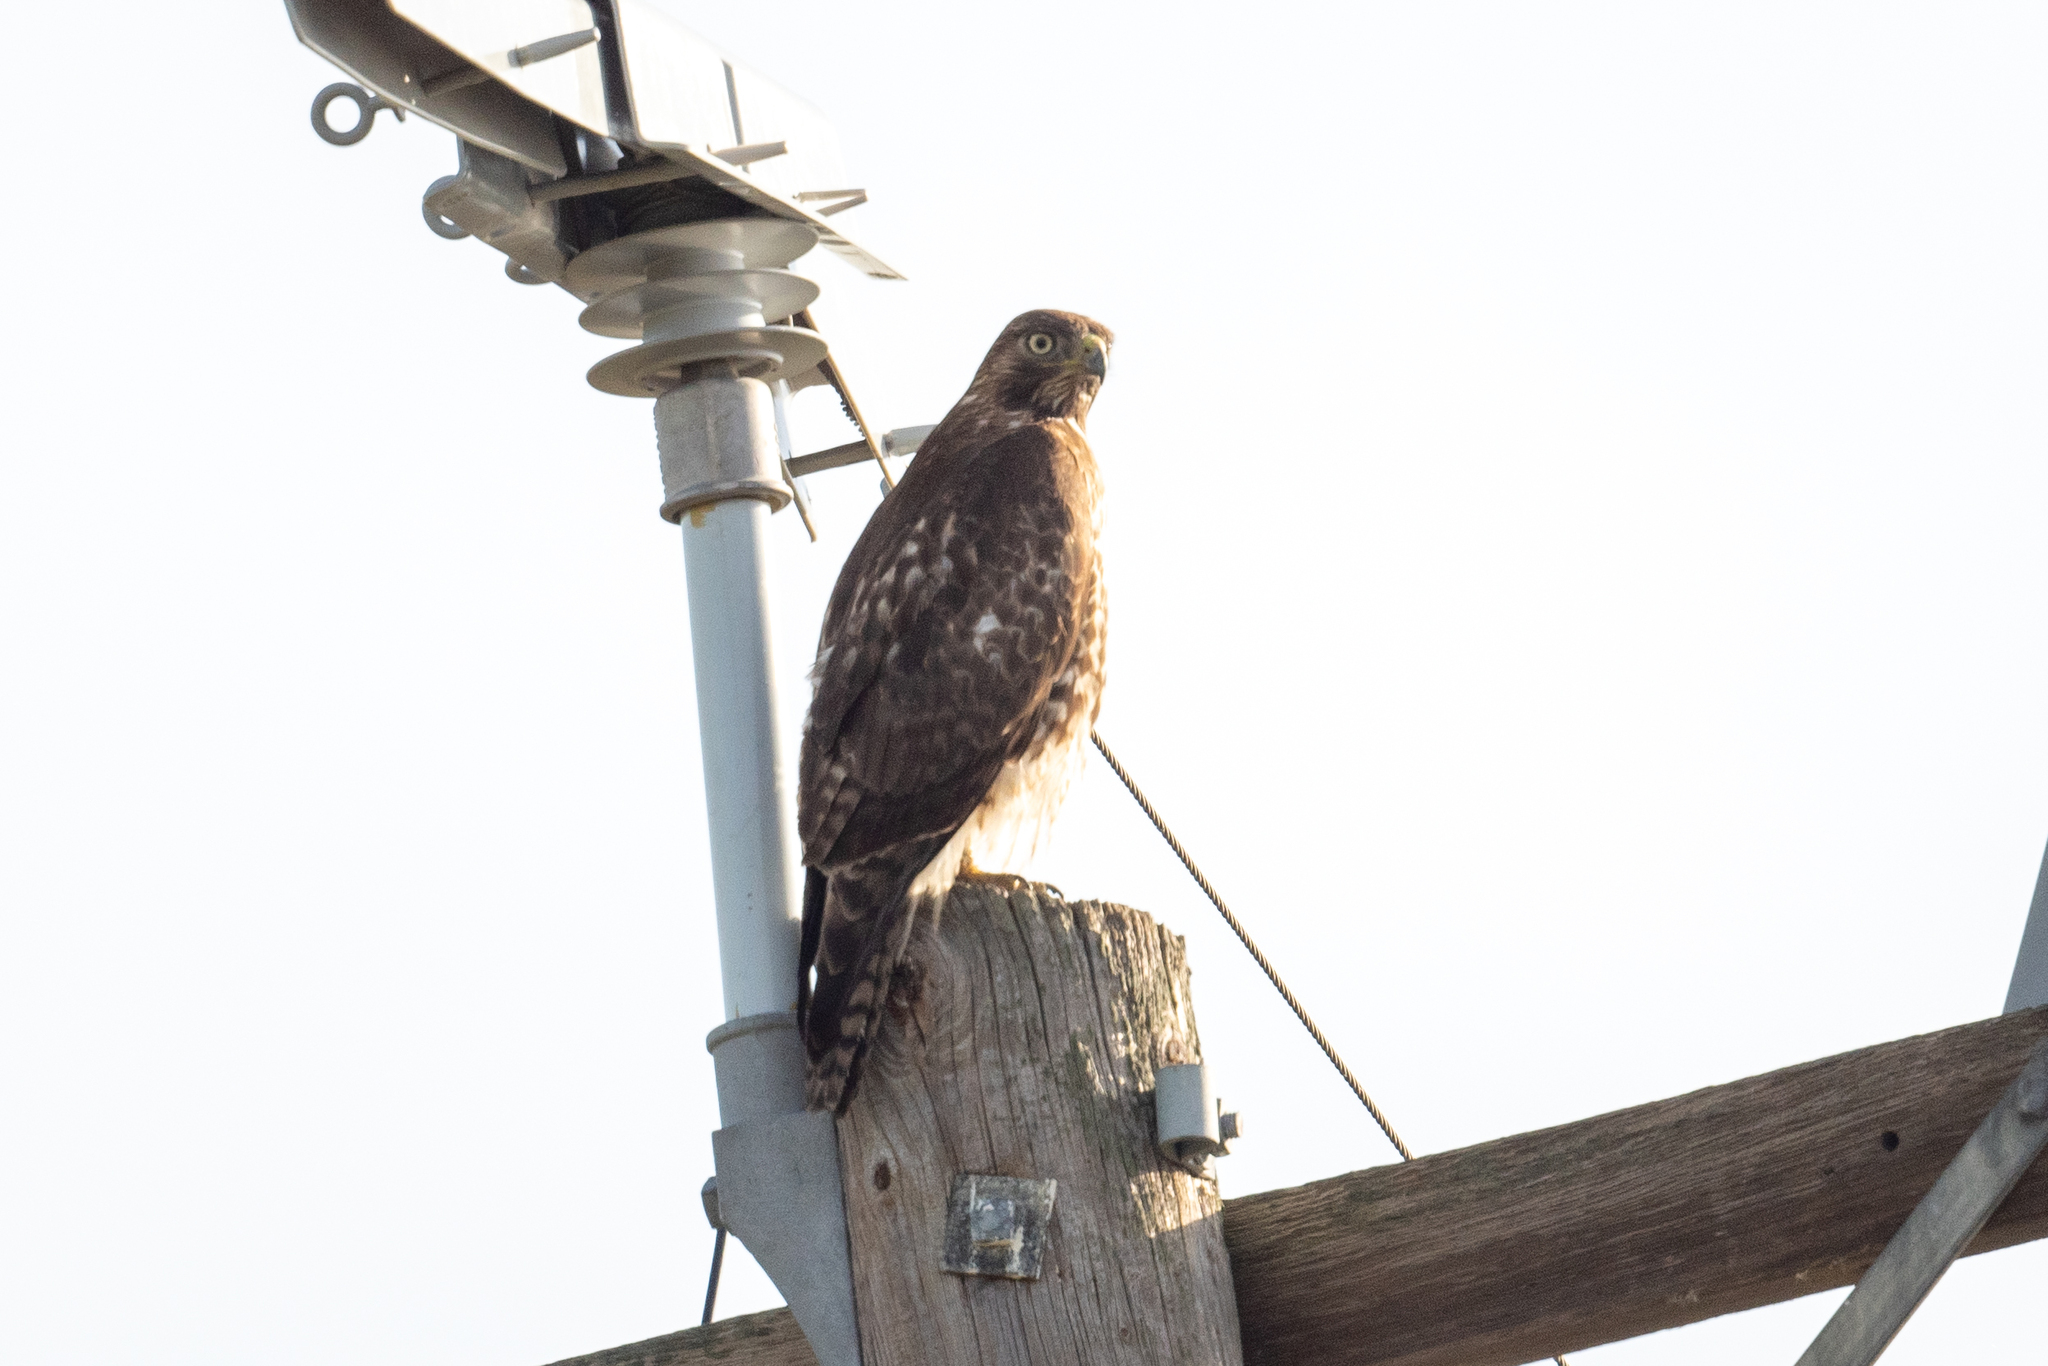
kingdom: Animalia
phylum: Chordata
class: Aves
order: Accipitriformes
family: Accipitridae
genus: Buteo
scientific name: Buteo jamaicensis
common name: Red-tailed hawk
